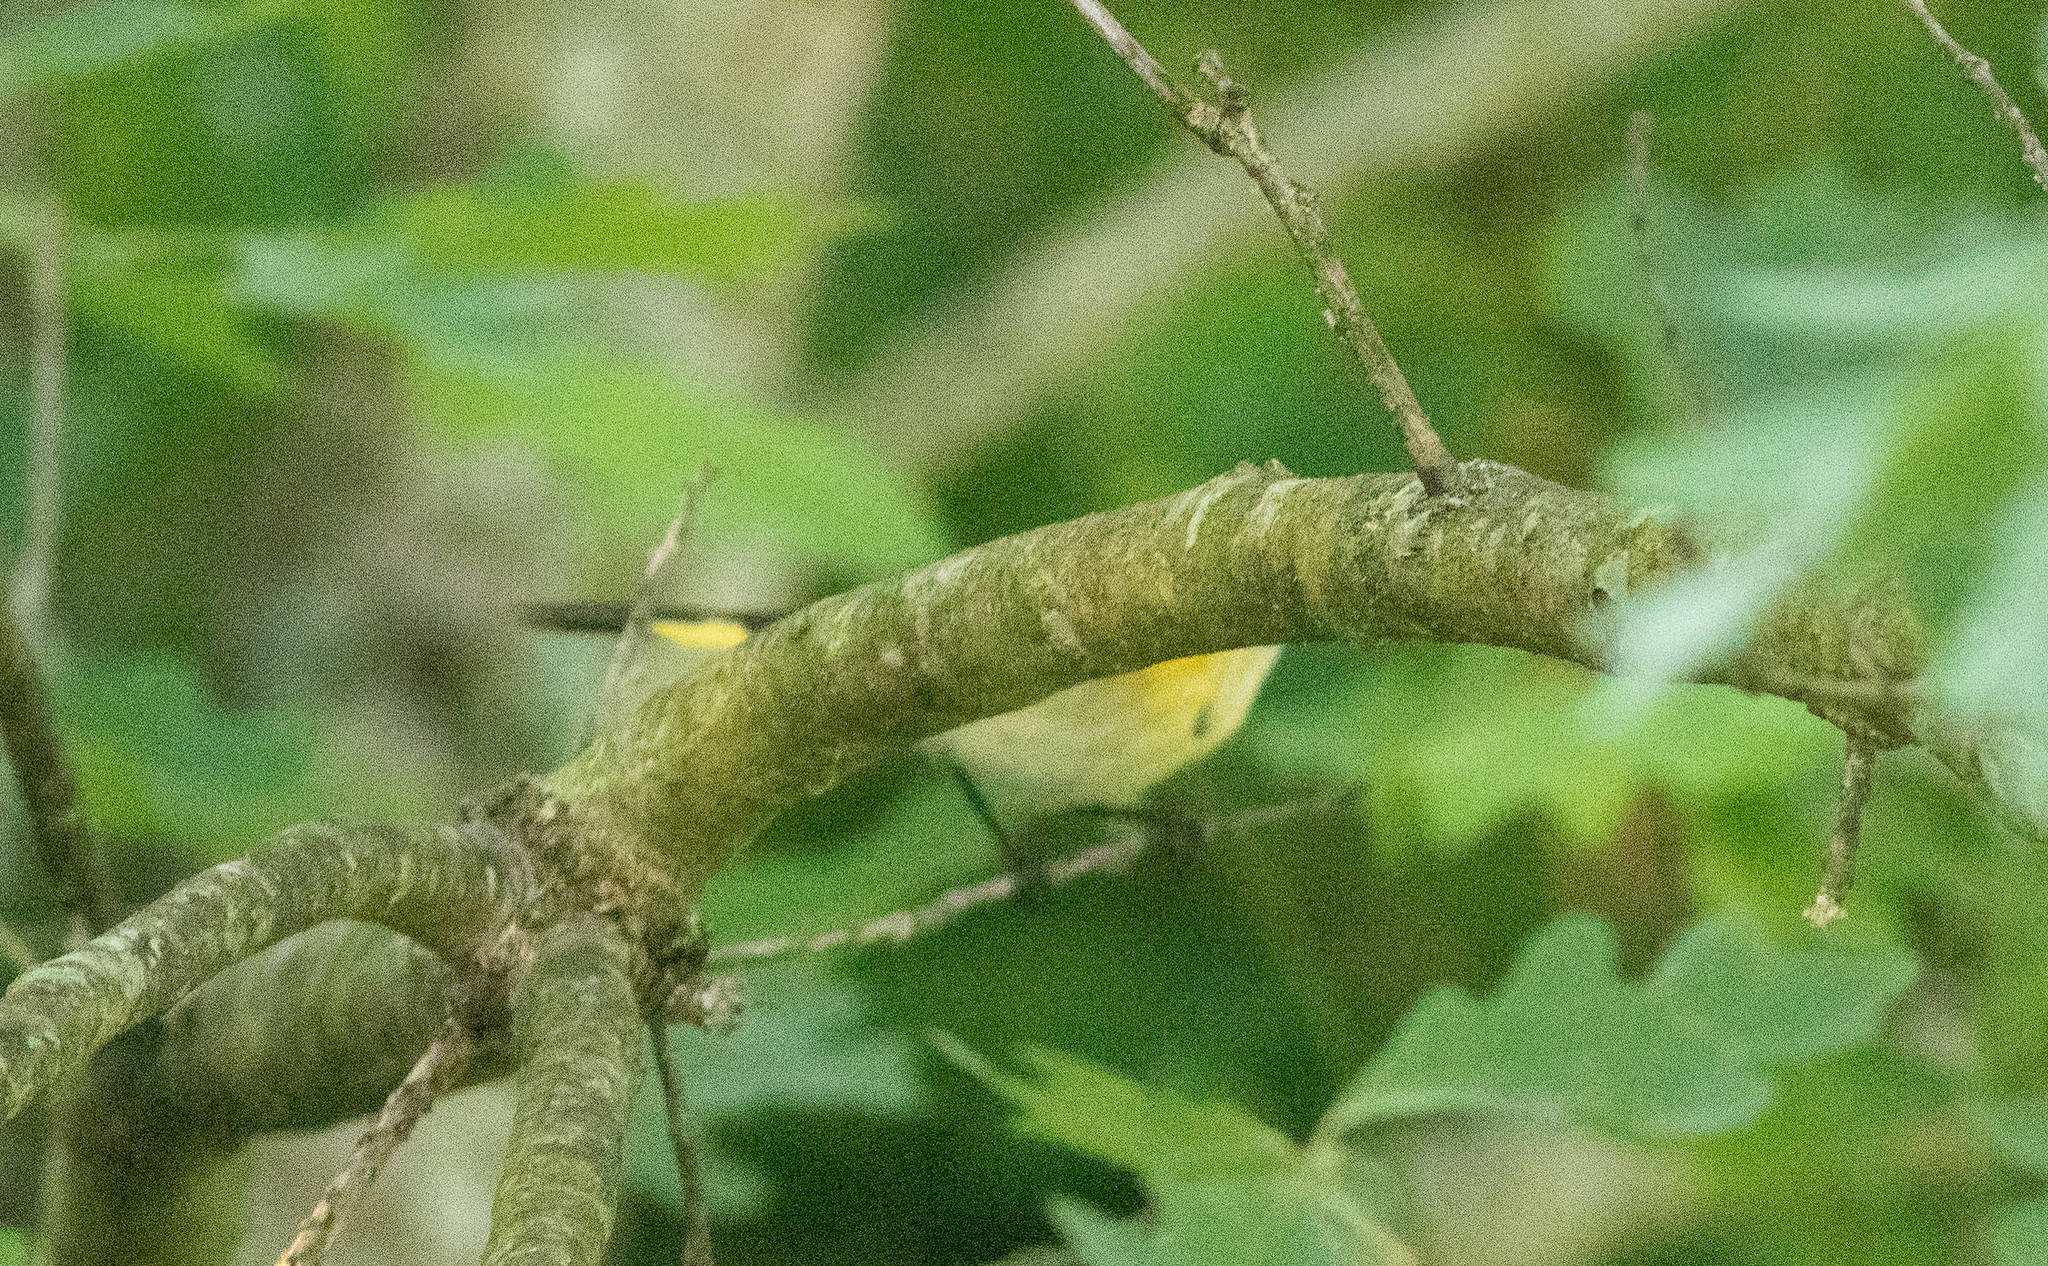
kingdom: Animalia
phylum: Chordata
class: Aves
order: Passeriformes
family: Parulidae
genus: Setophaga
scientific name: Setophaga ruticilla
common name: American redstart
